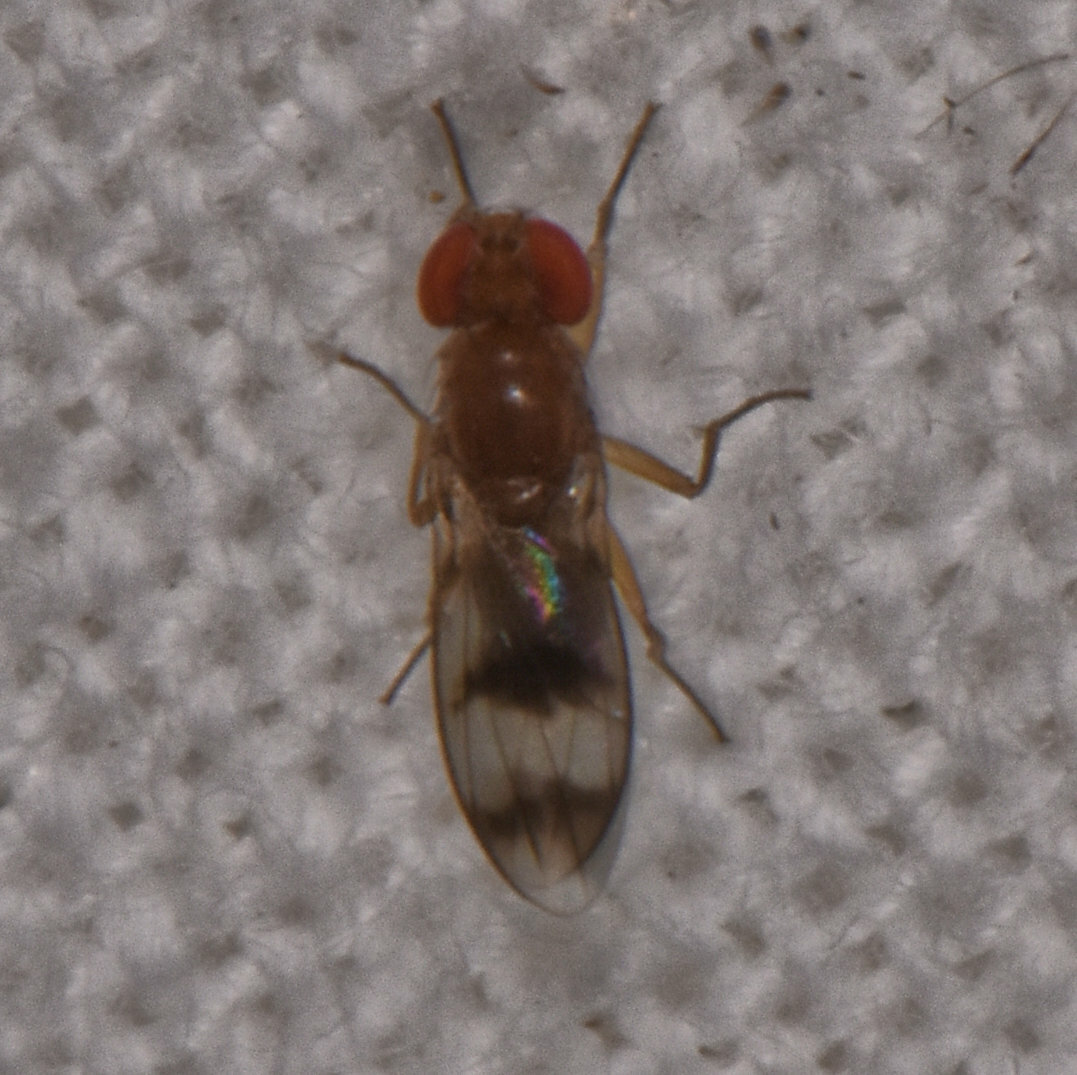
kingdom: Animalia
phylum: Arthropoda
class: Insecta
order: Diptera
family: Drosophilidae
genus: Chymomyza
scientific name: Chymomyza amoena
